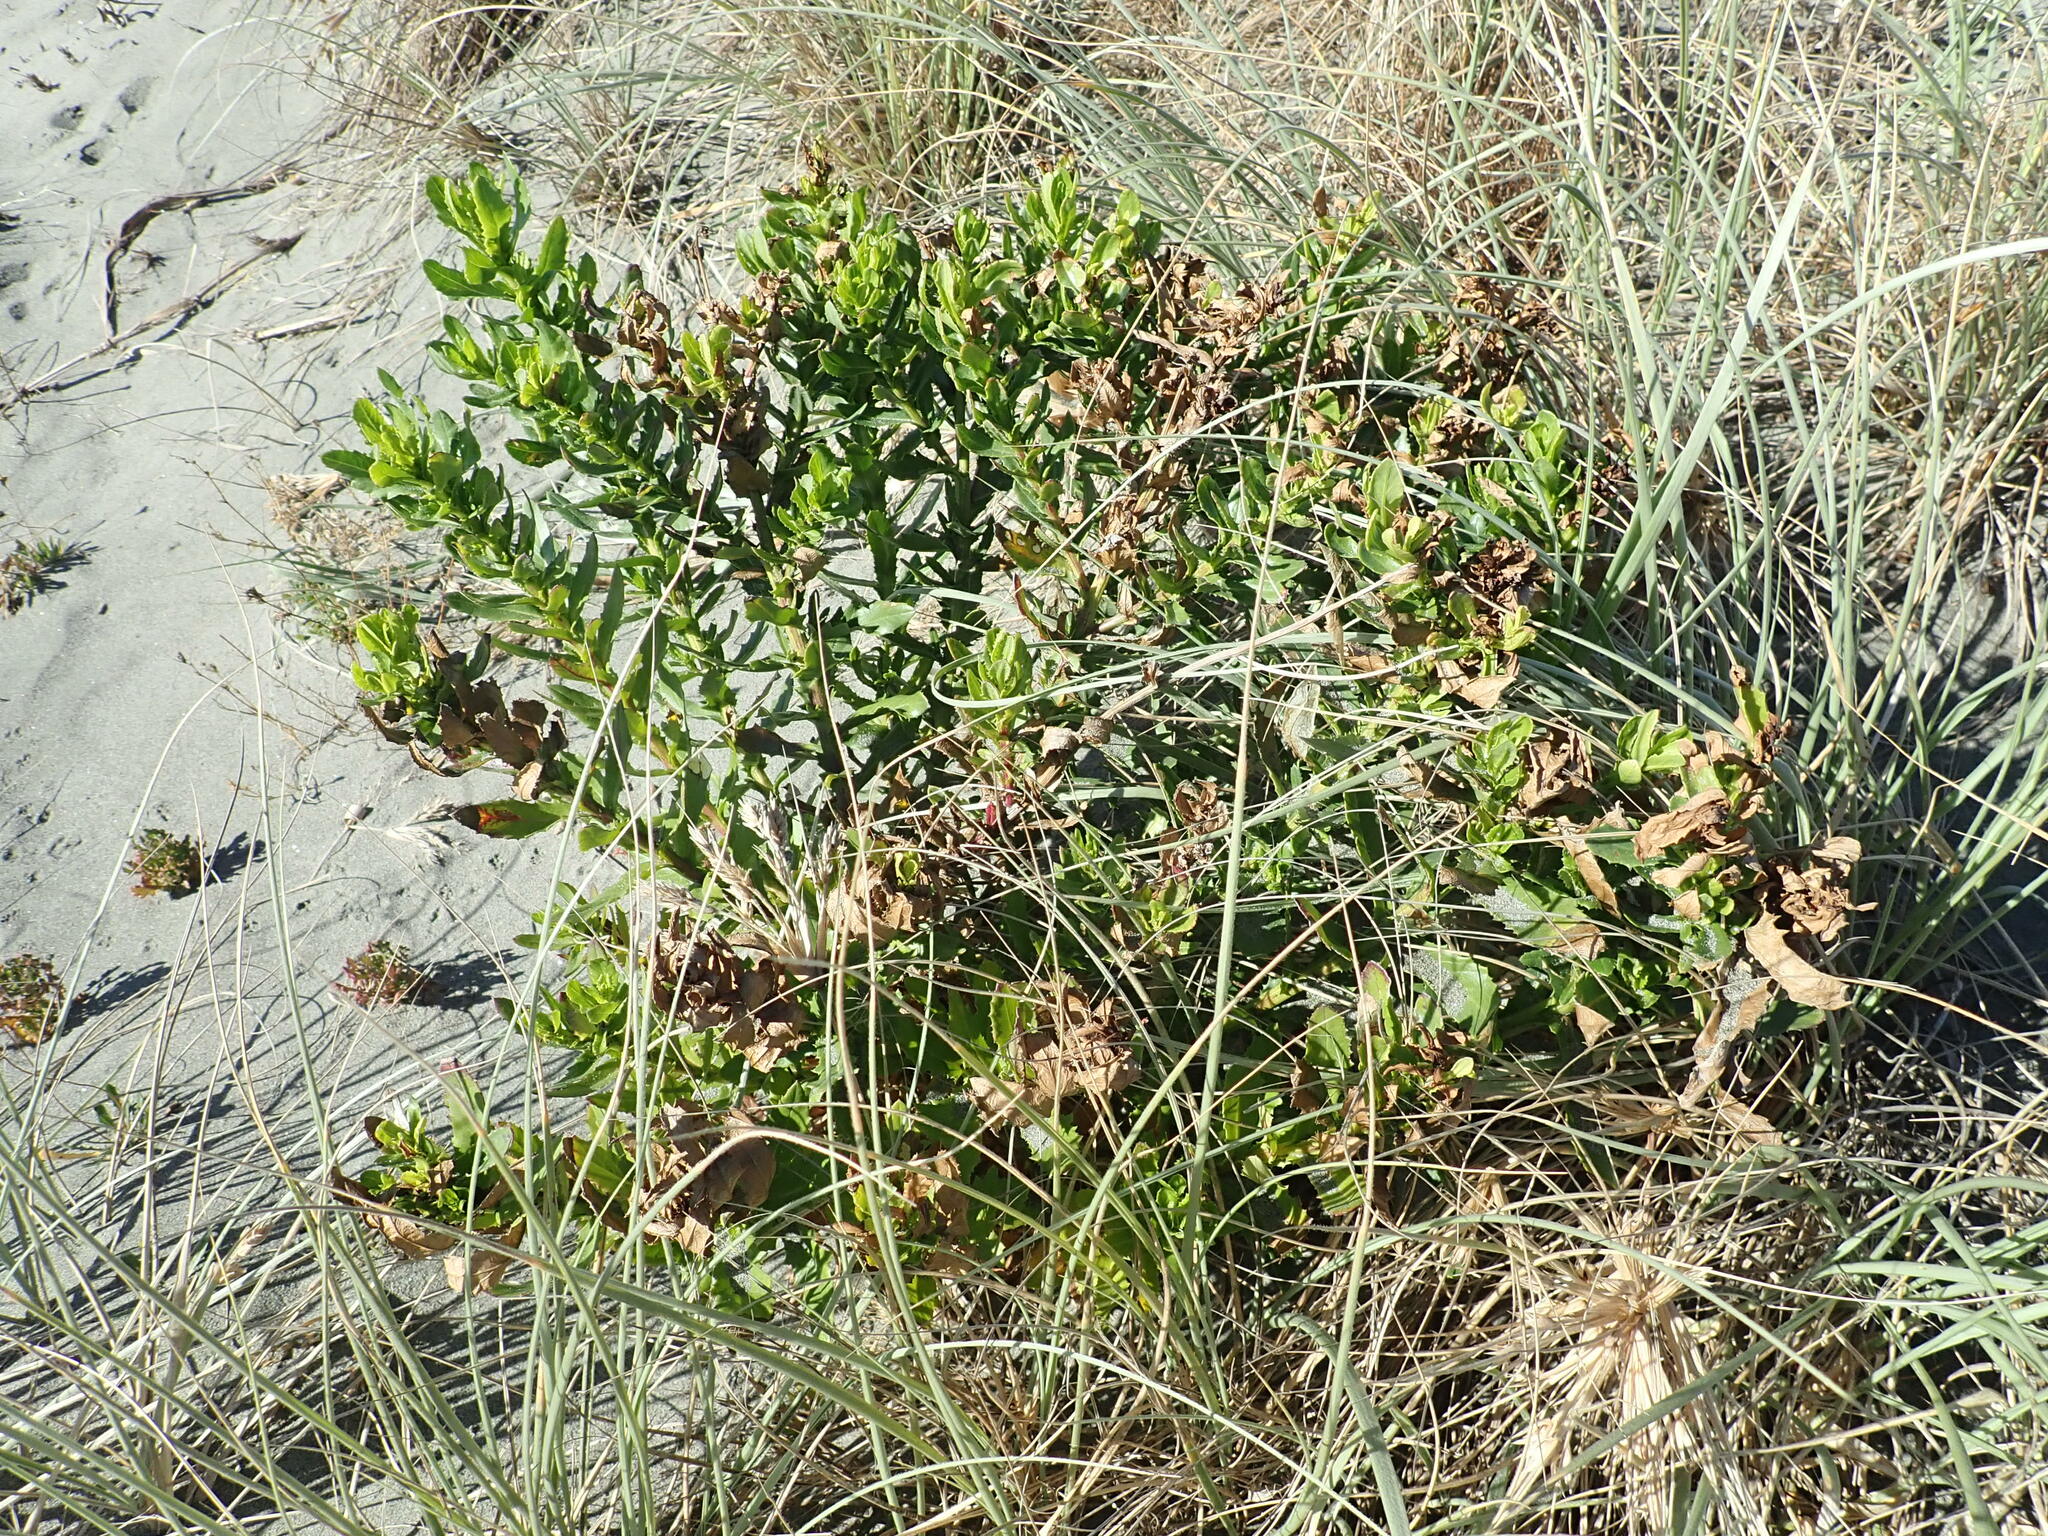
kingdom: Plantae
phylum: Tracheophyta
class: Magnoliopsida
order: Asterales
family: Asteraceae
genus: Senecio
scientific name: Senecio glastifolius
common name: Woad-leaved ragwort
